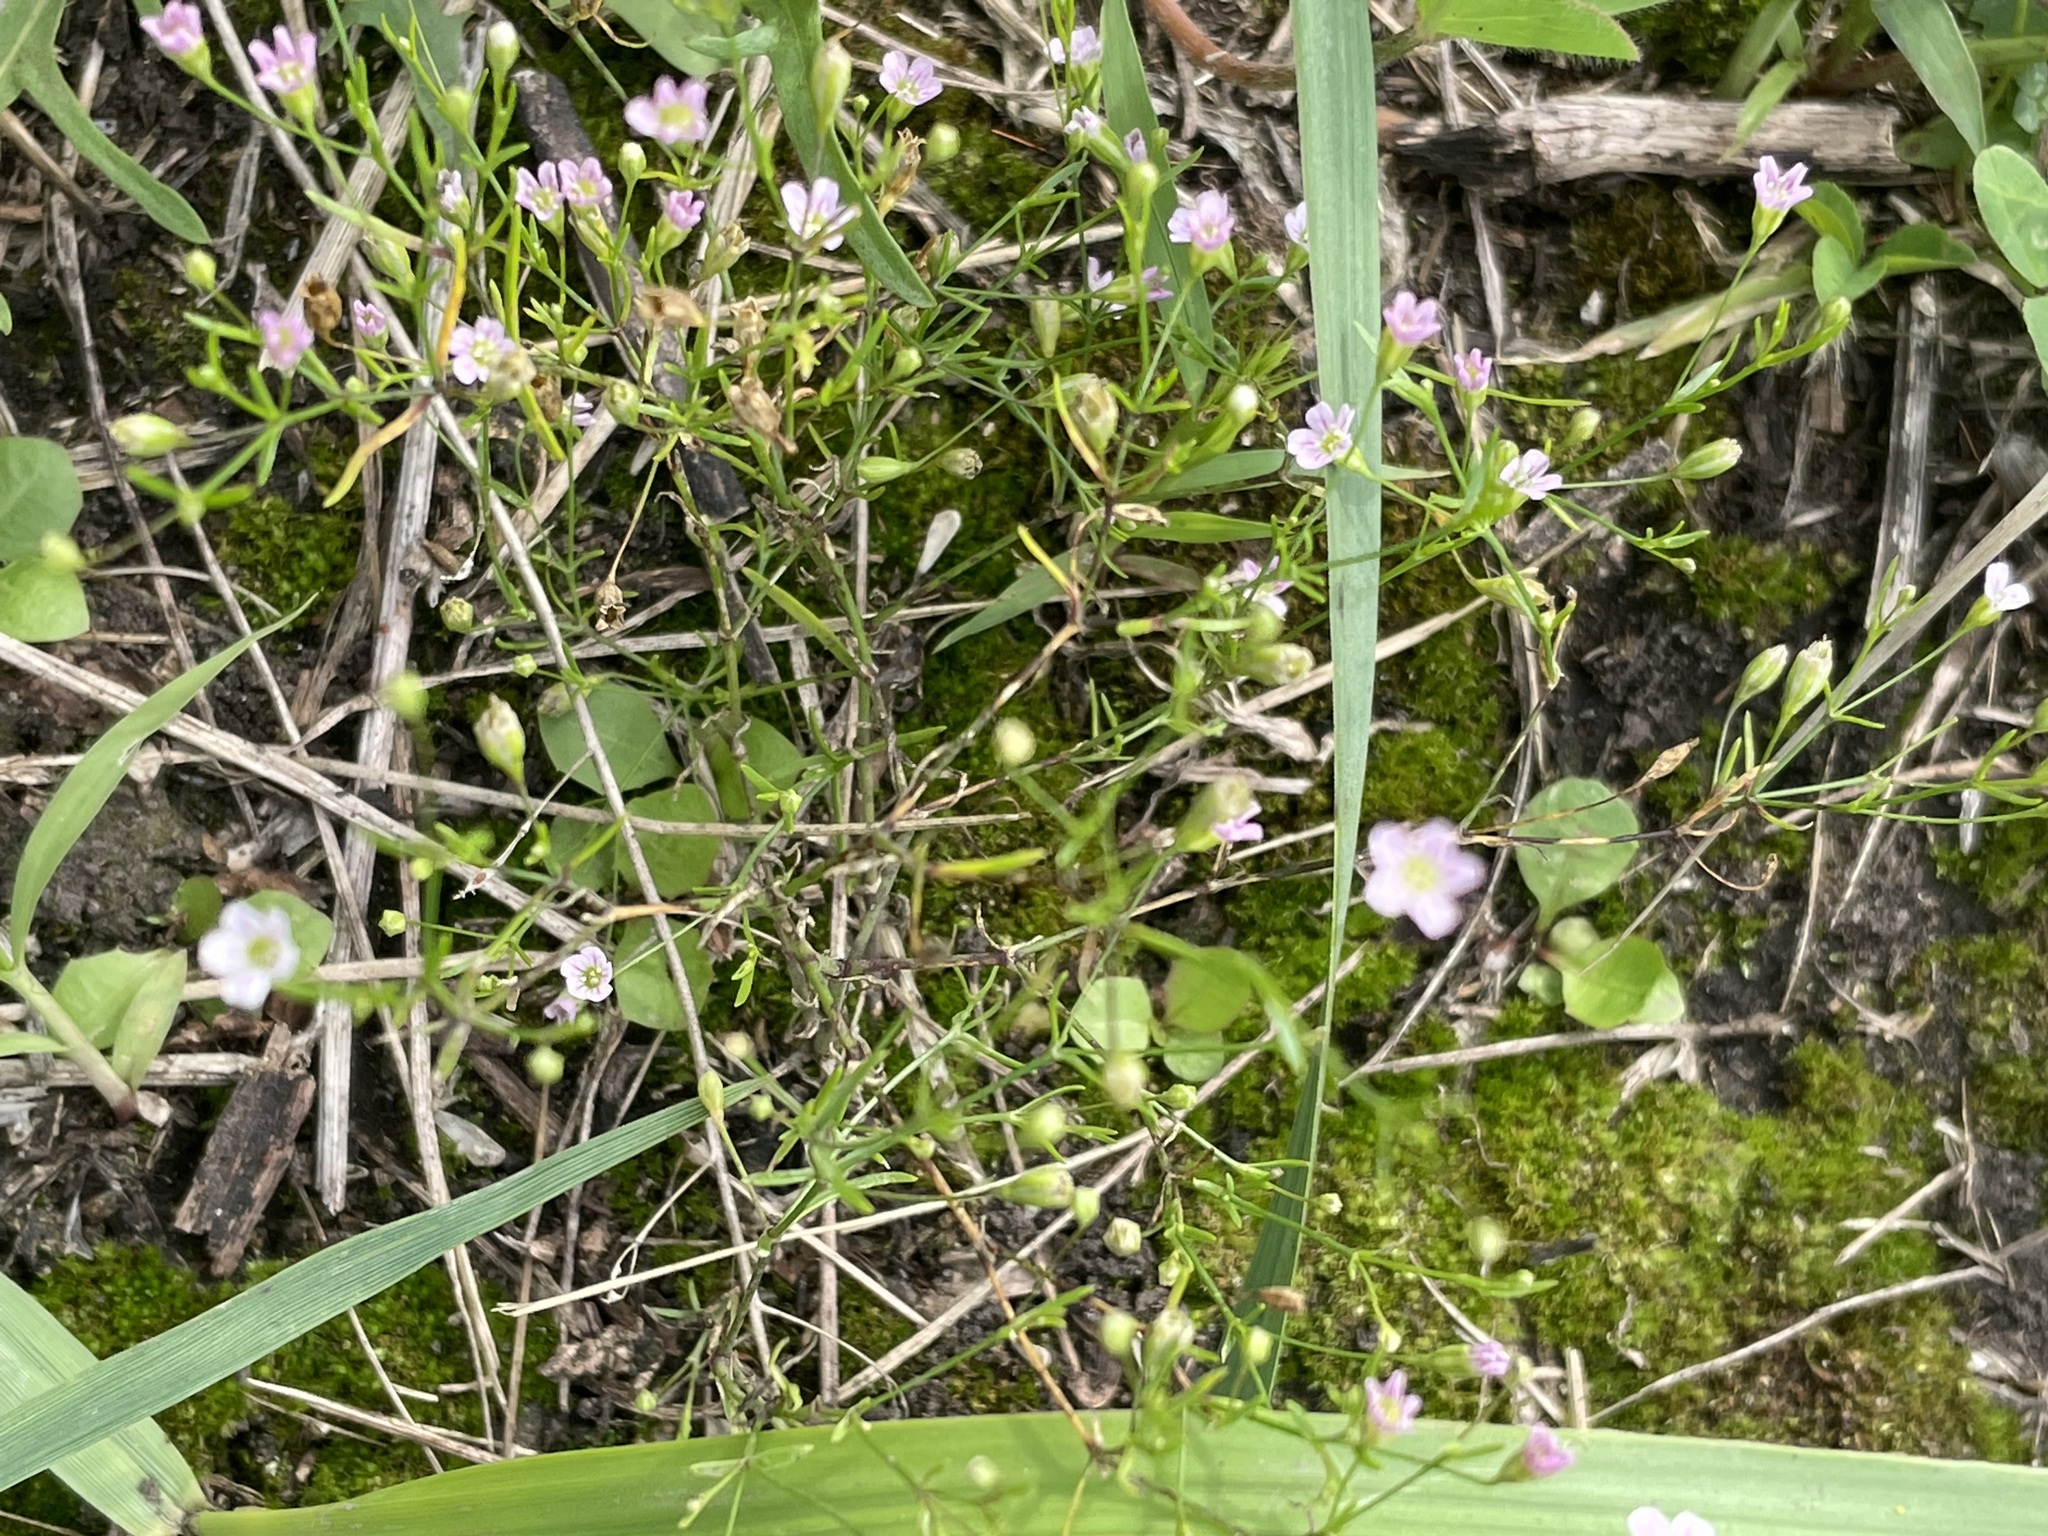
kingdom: Plantae
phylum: Tracheophyta
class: Magnoliopsida
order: Caryophyllales
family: Caryophyllaceae
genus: Psammophiliella
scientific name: Psammophiliella muralis
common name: Cushion baby's-breath
